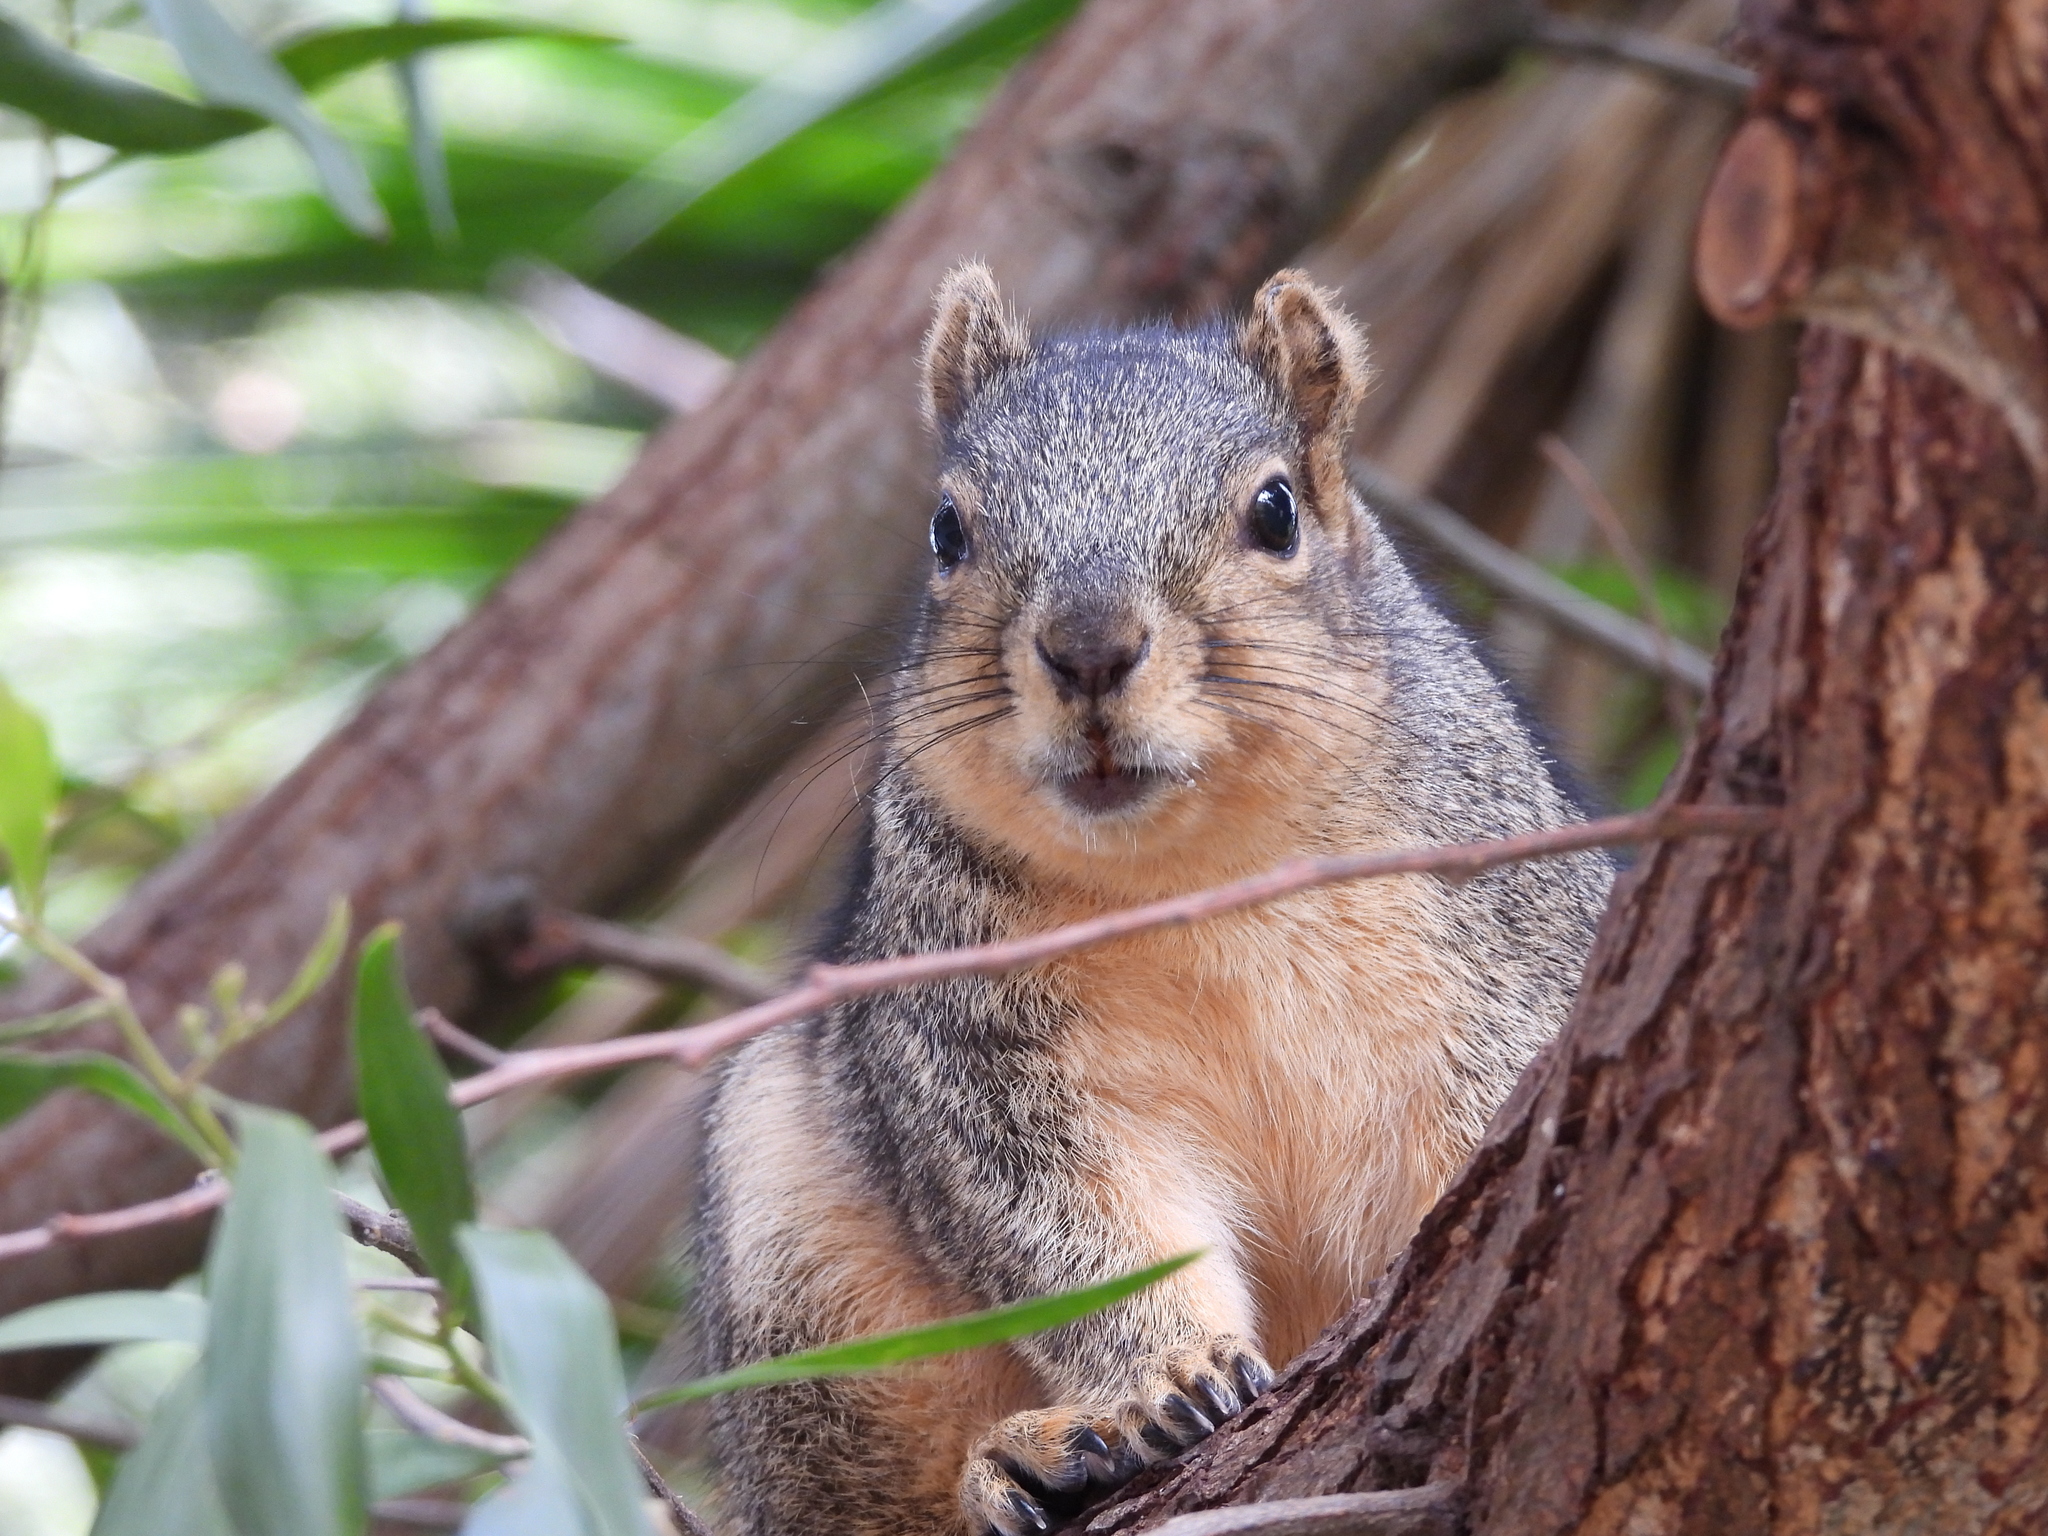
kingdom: Animalia
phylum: Chordata
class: Mammalia
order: Rodentia
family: Sciuridae
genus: Sciurus
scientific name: Sciurus niger
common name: Fox squirrel
